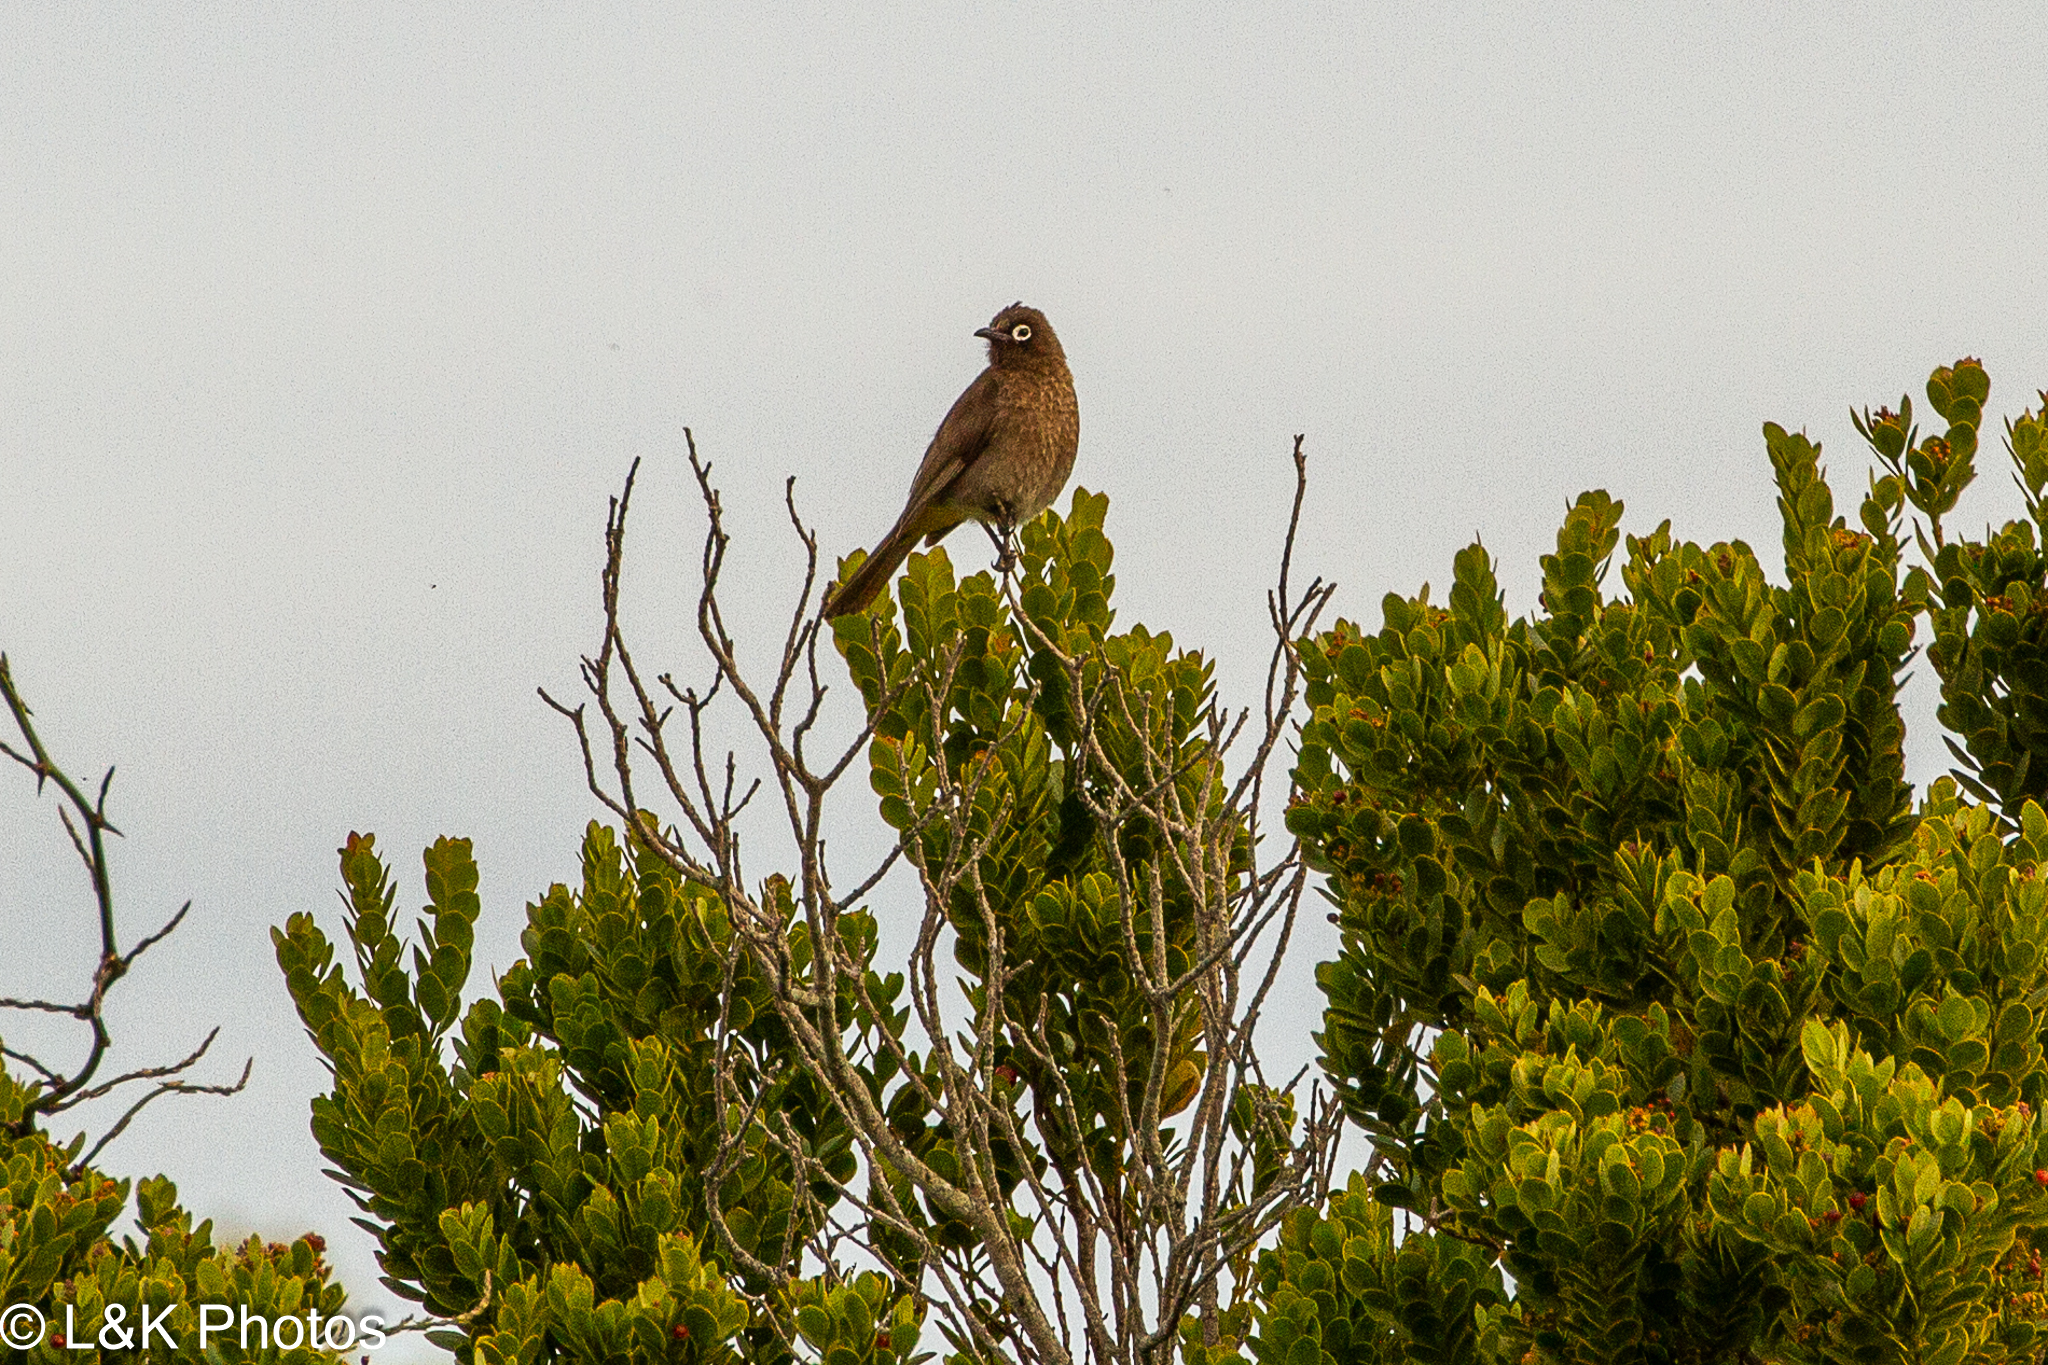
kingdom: Animalia
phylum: Chordata
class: Aves
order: Passeriformes
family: Pycnonotidae
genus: Pycnonotus
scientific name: Pycnonotus capensis
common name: Cape bulbul
